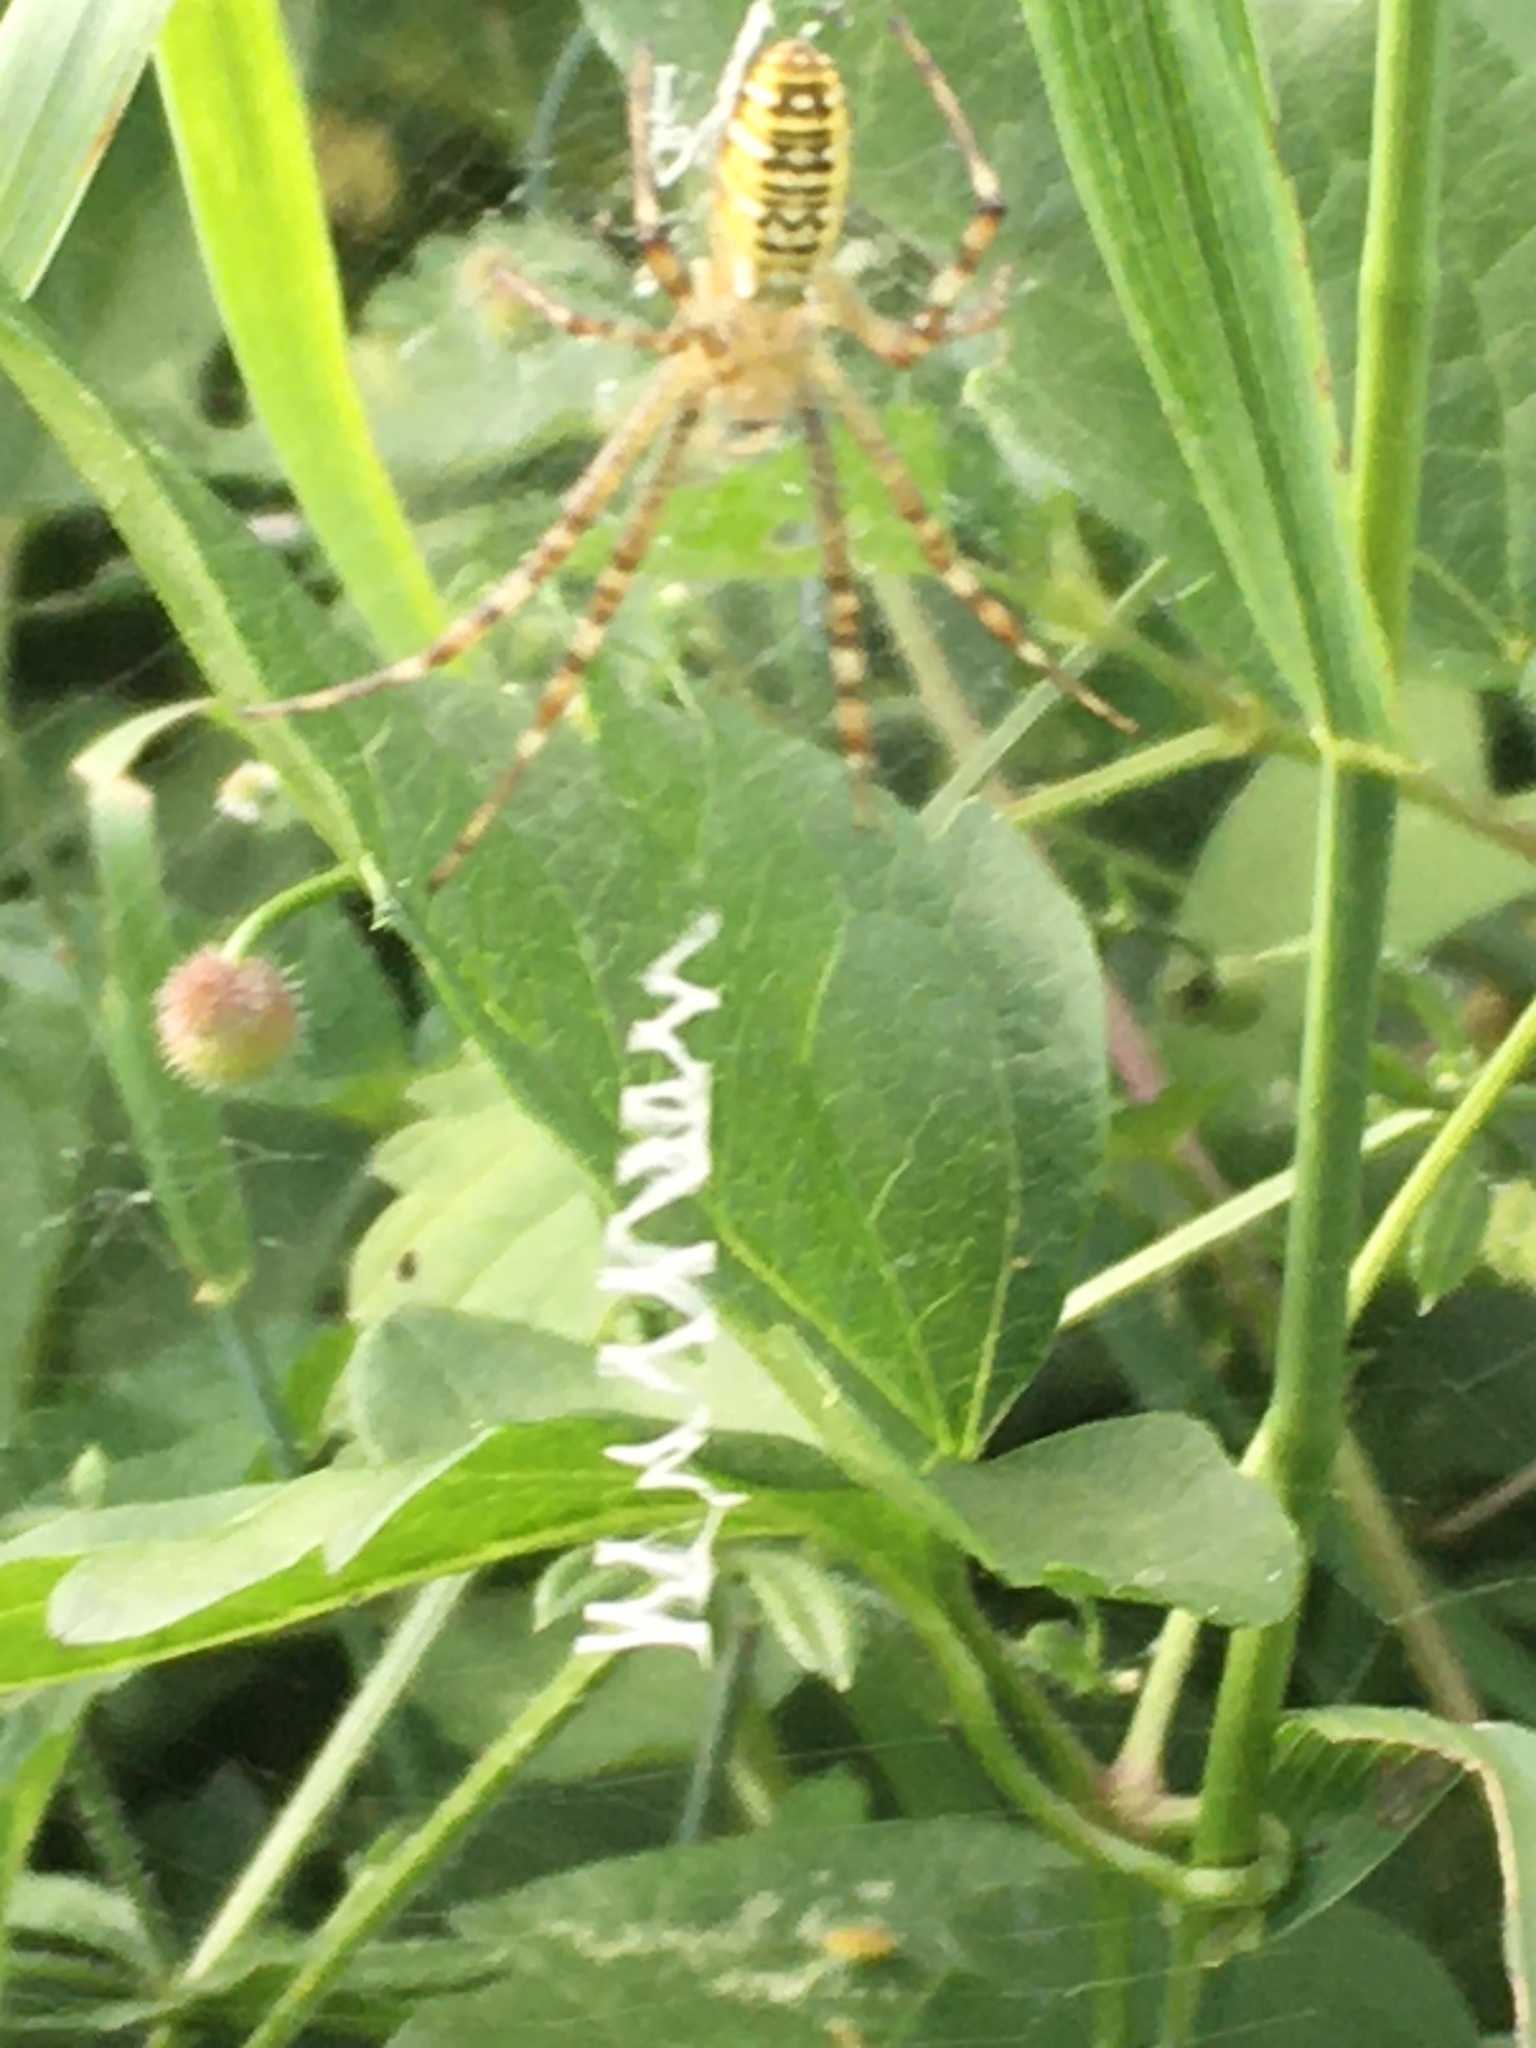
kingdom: Animalia
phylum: Arthropoda
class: Arachnida
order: Araneae
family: Araneidae
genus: Argiope
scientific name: Argiope bruennichi
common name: Wasp spider
